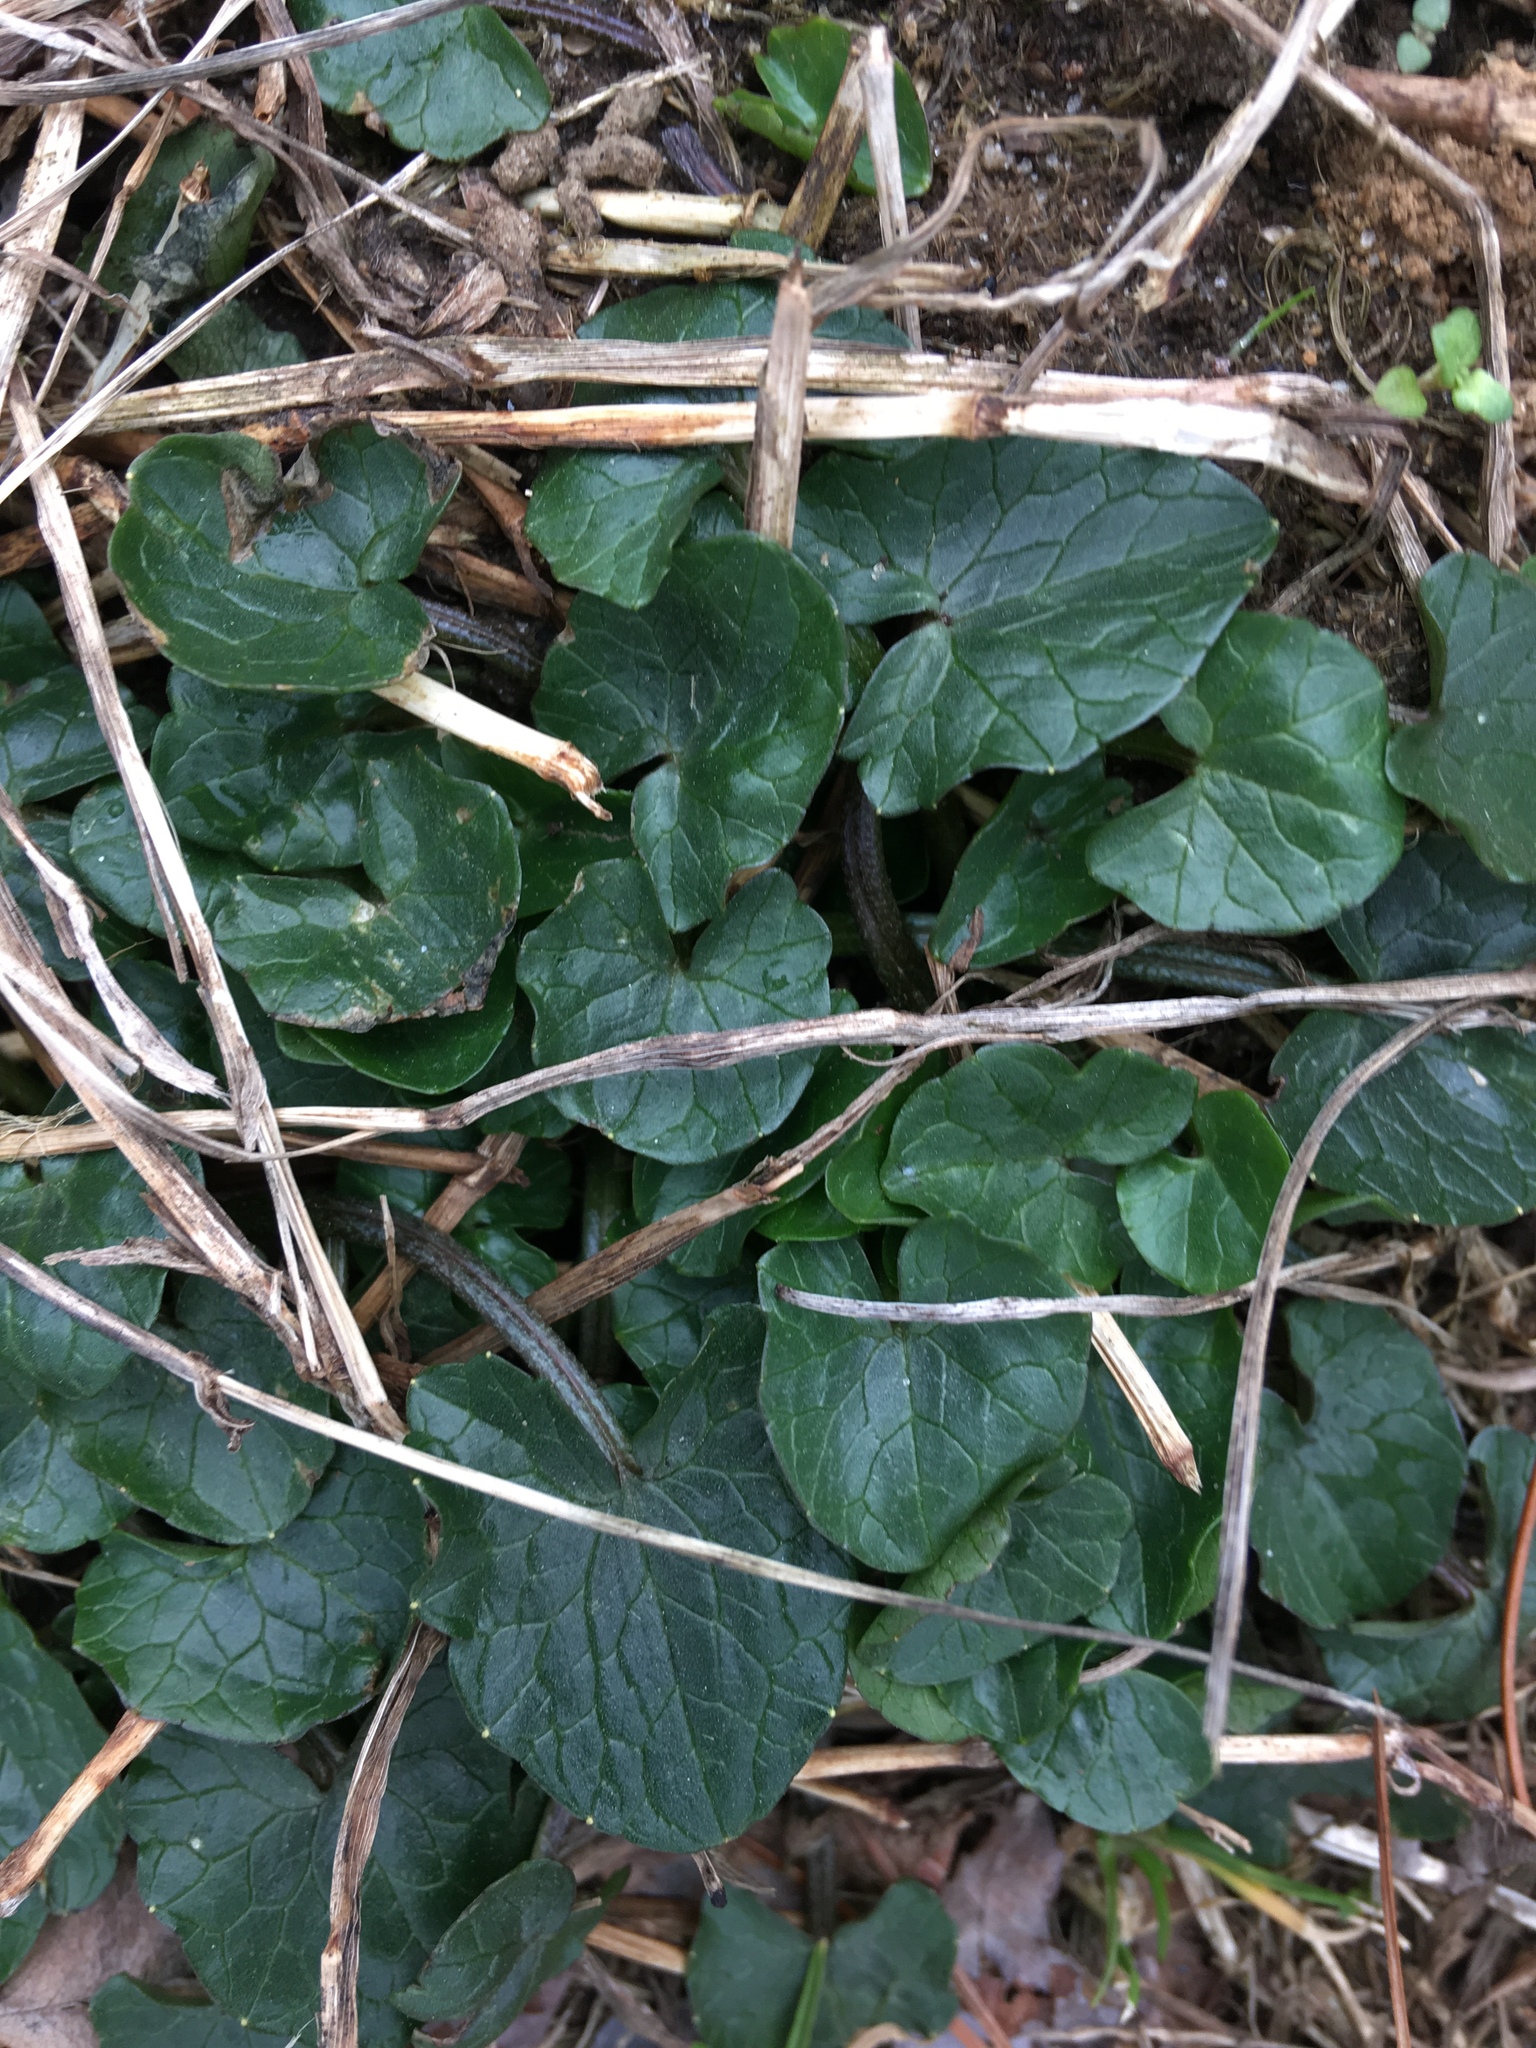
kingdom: Plantae
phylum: Tracheophyta
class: Magnoliopsida
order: Ranunculales
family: Ranunculaceae
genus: Ficaria
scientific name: Ficaria verna
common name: Lesser celandine
